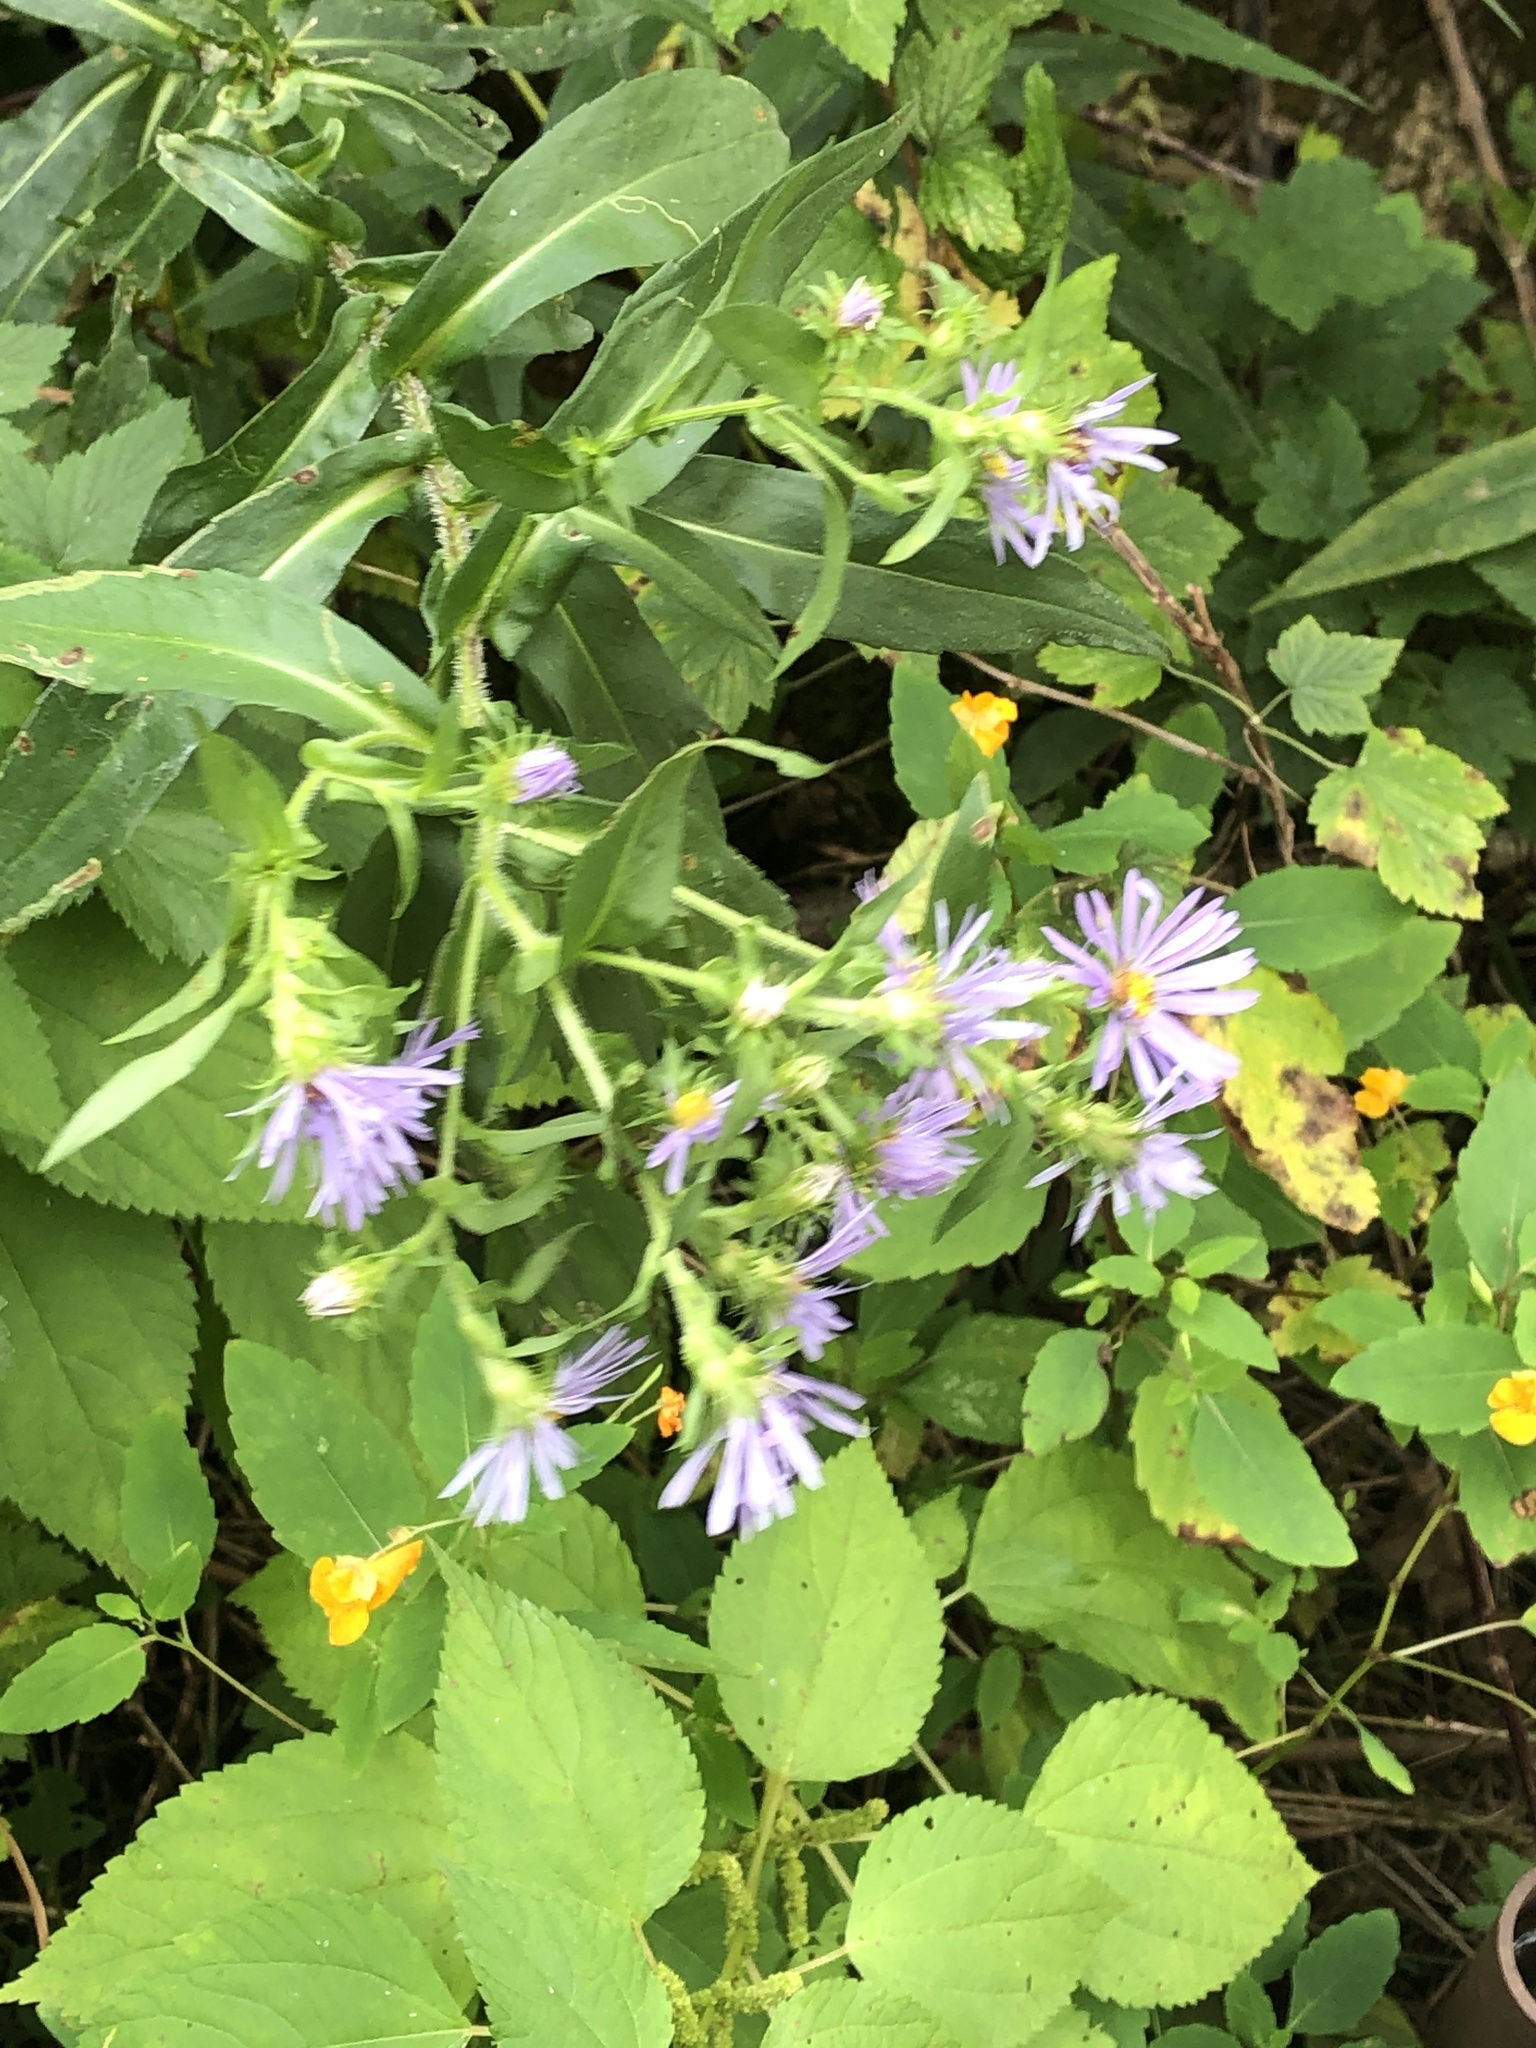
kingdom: Plantae
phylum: Tracheophyta
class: Magnoliopsida
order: Asterales
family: Asteraceae
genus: Symphyotrichum
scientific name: Symphyotrichum puniceum
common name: Bog aster
